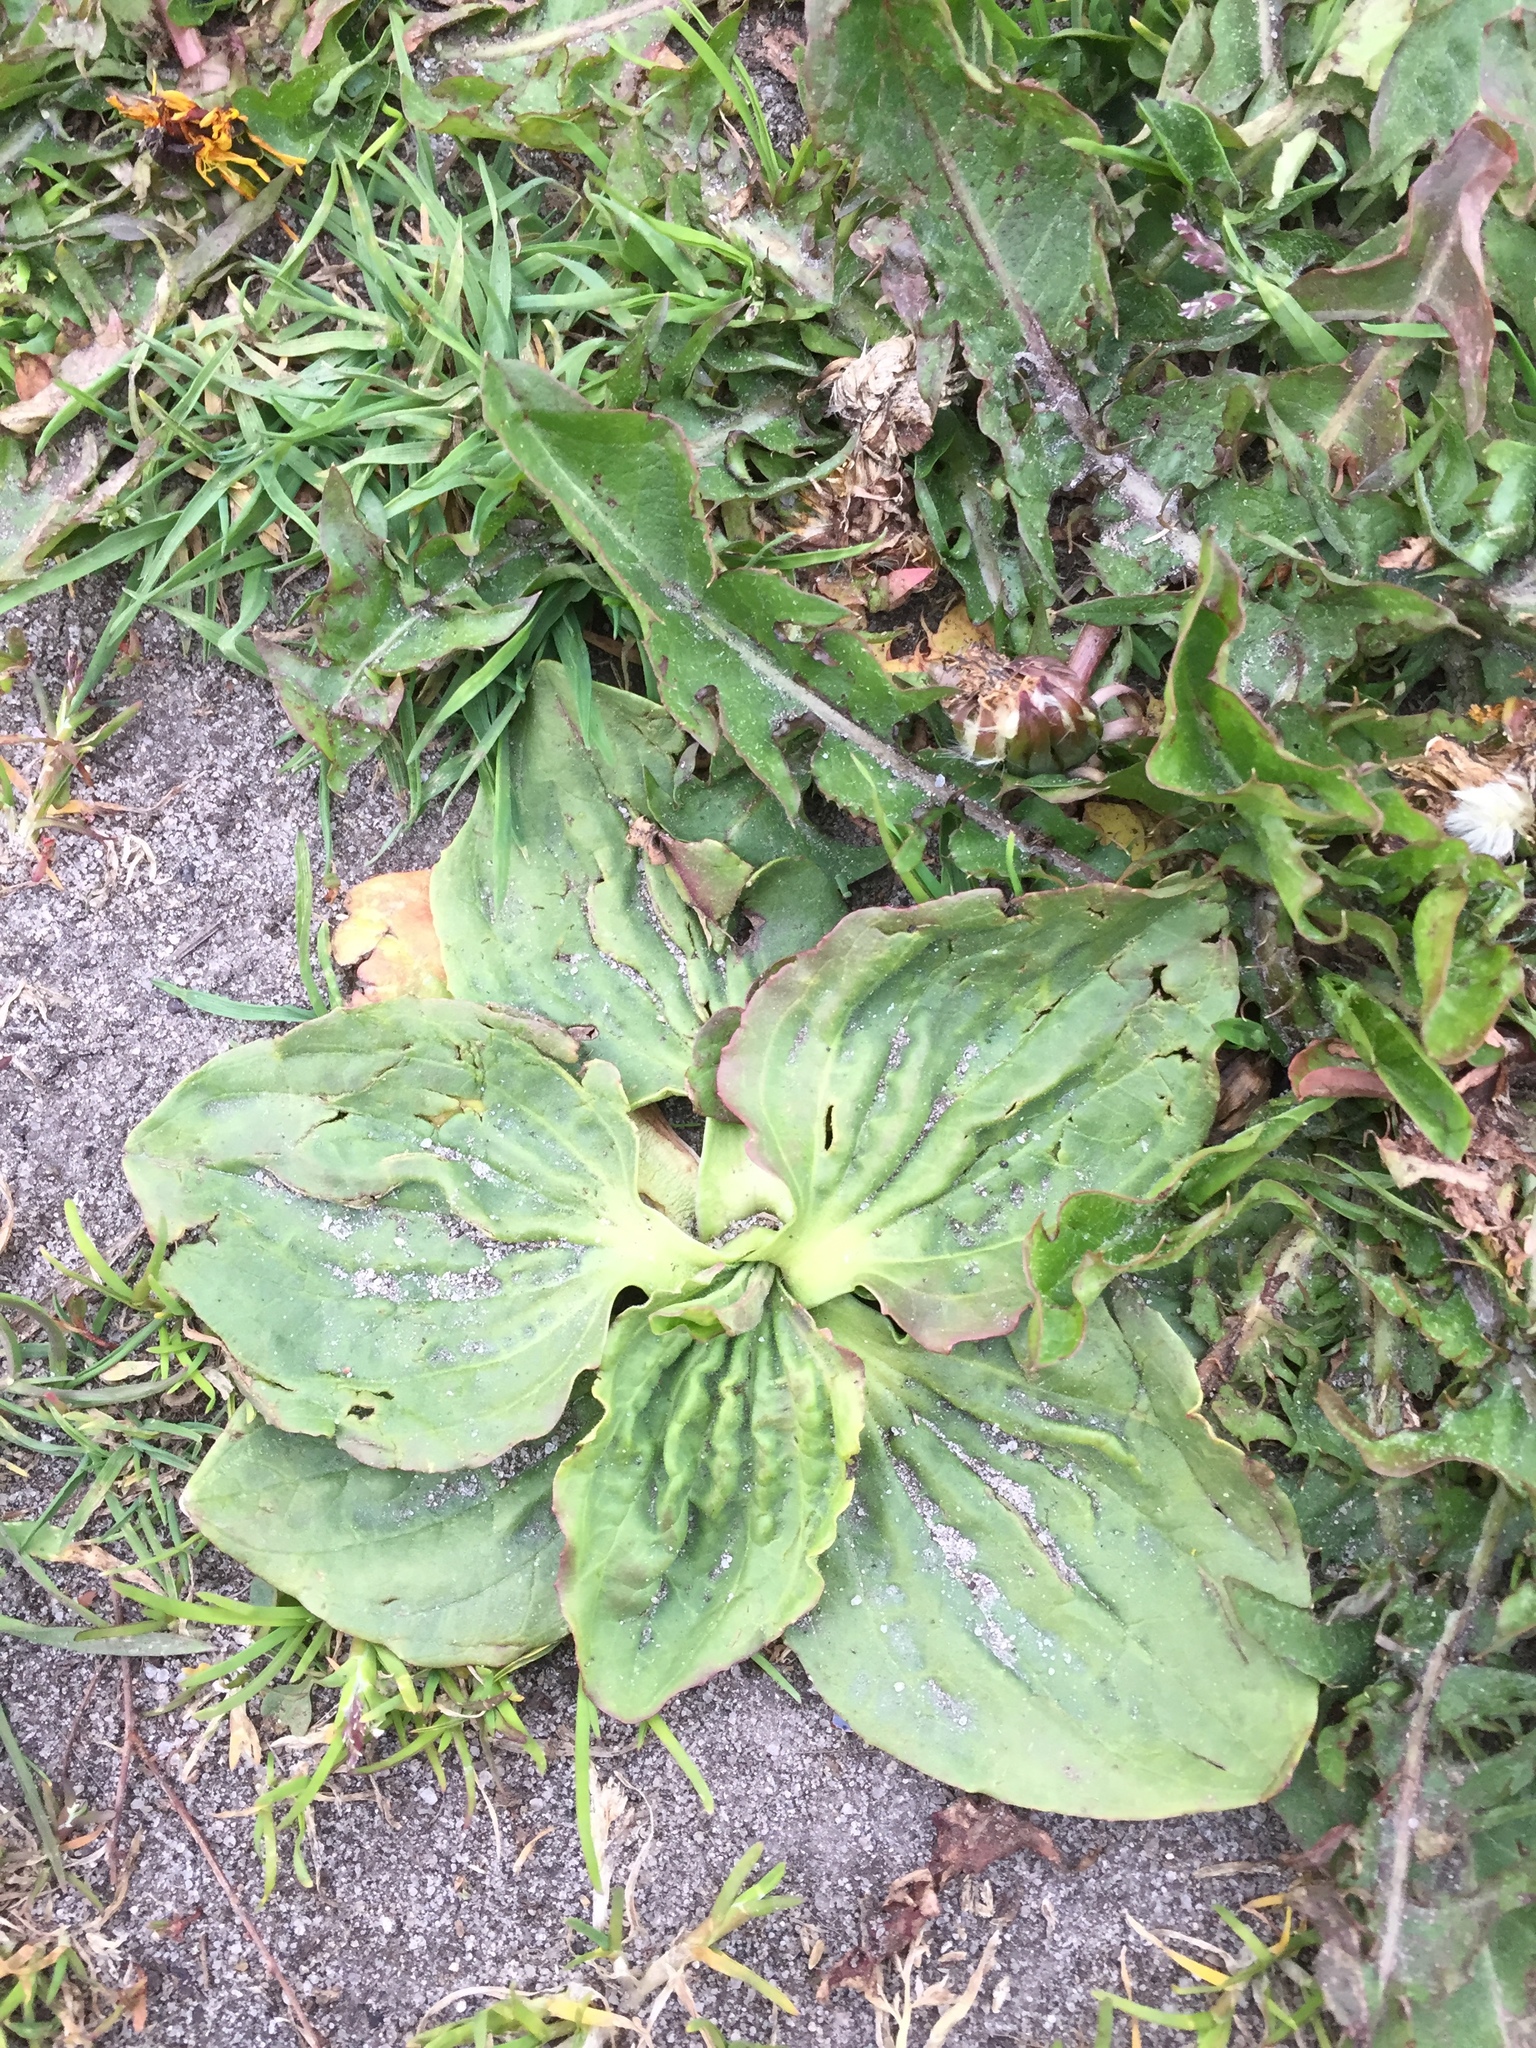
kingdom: Plantae
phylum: Tracheophyta
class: Magnoliopsida
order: Lamiales
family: Plantaginaceae
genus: Plantago
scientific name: Plantago major
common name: Common plantain
